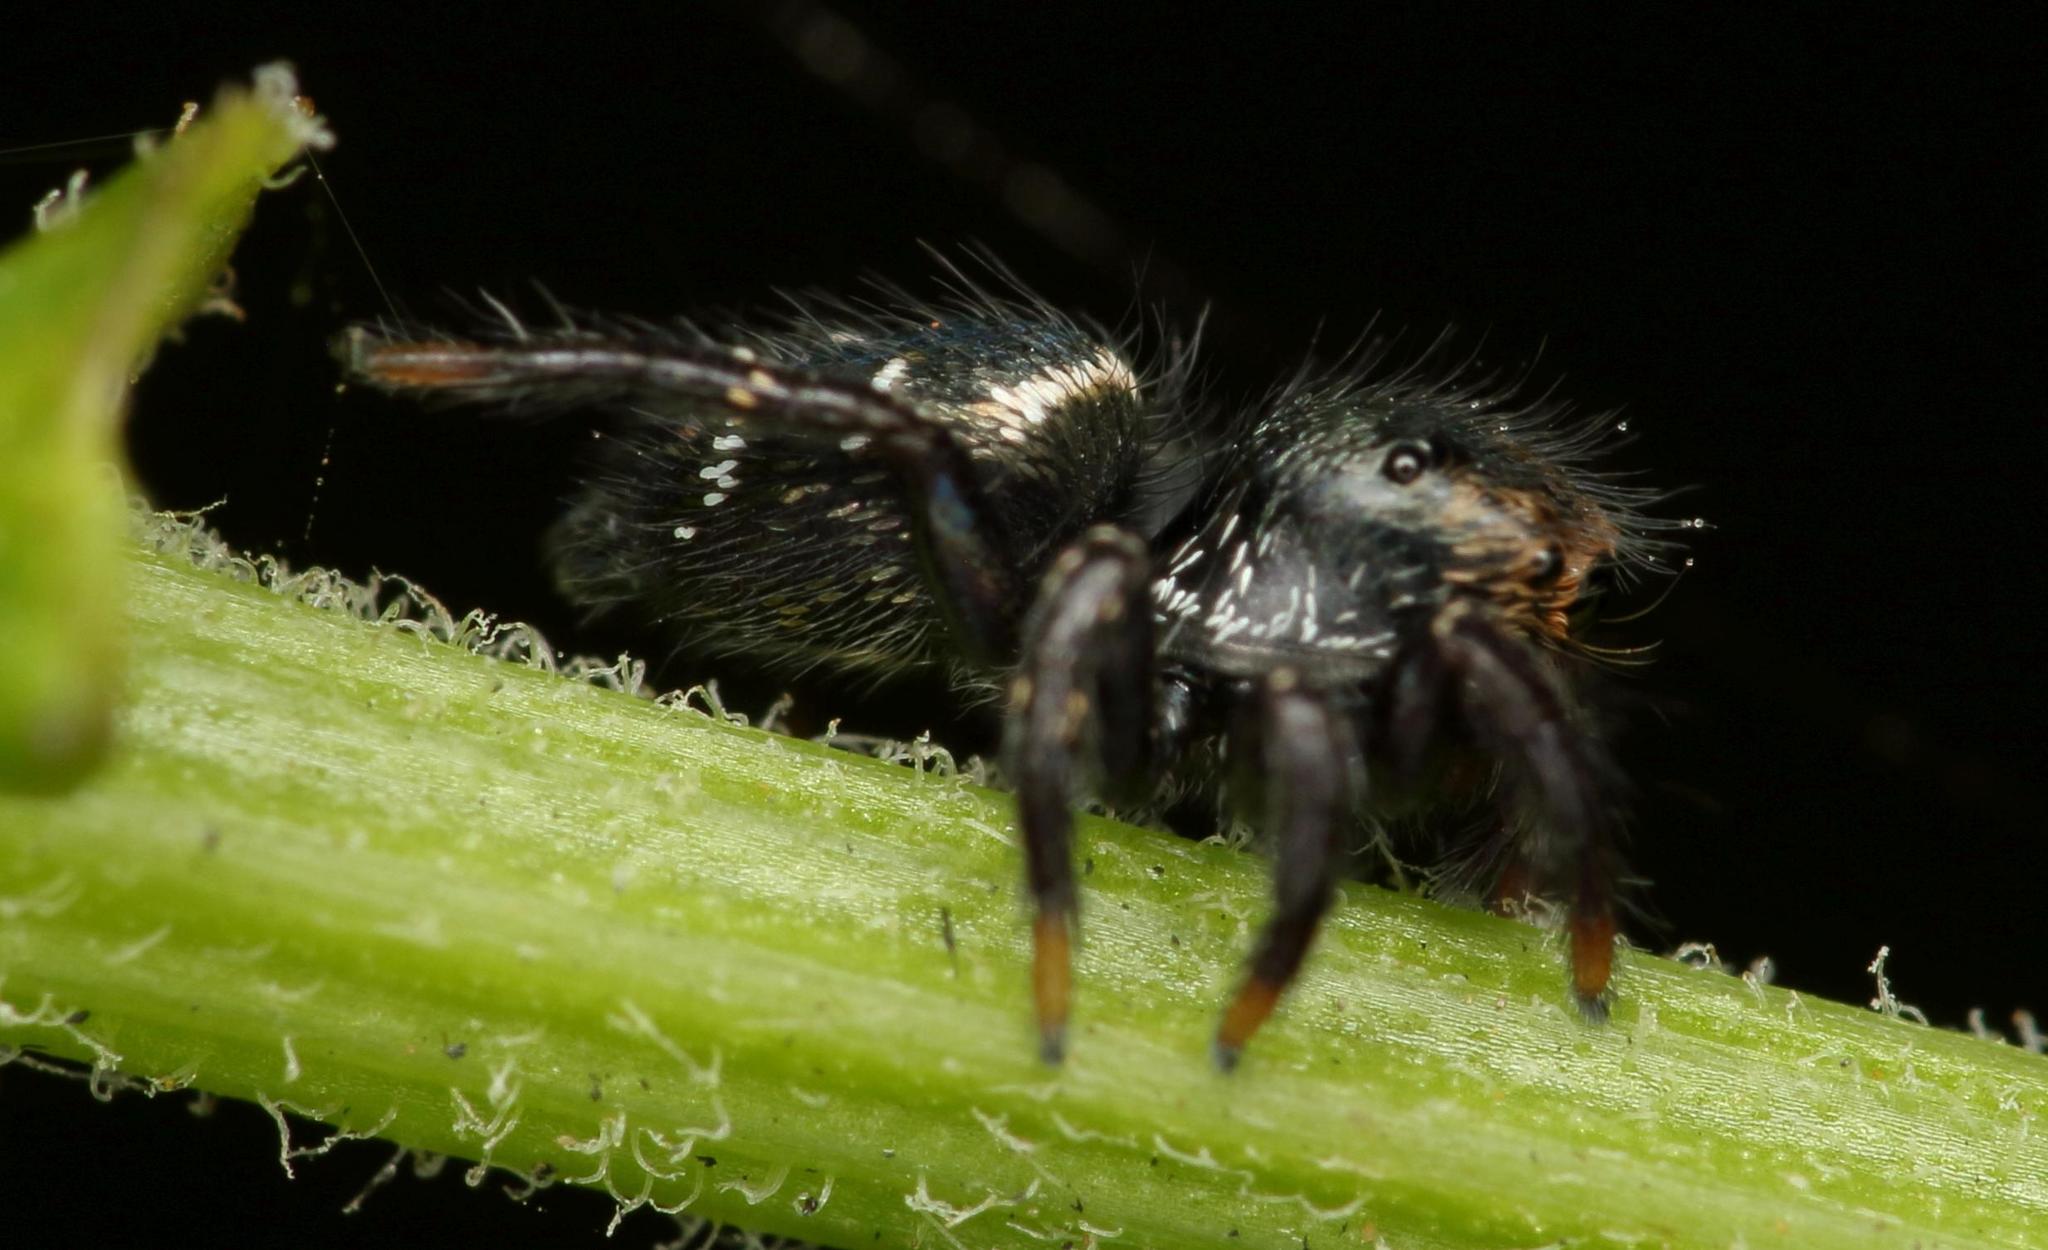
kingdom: Animalia
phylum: Arthropoda
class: Arachnida
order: Araneae
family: Salticidae
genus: Baryphas
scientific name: Baryphas ahenus
